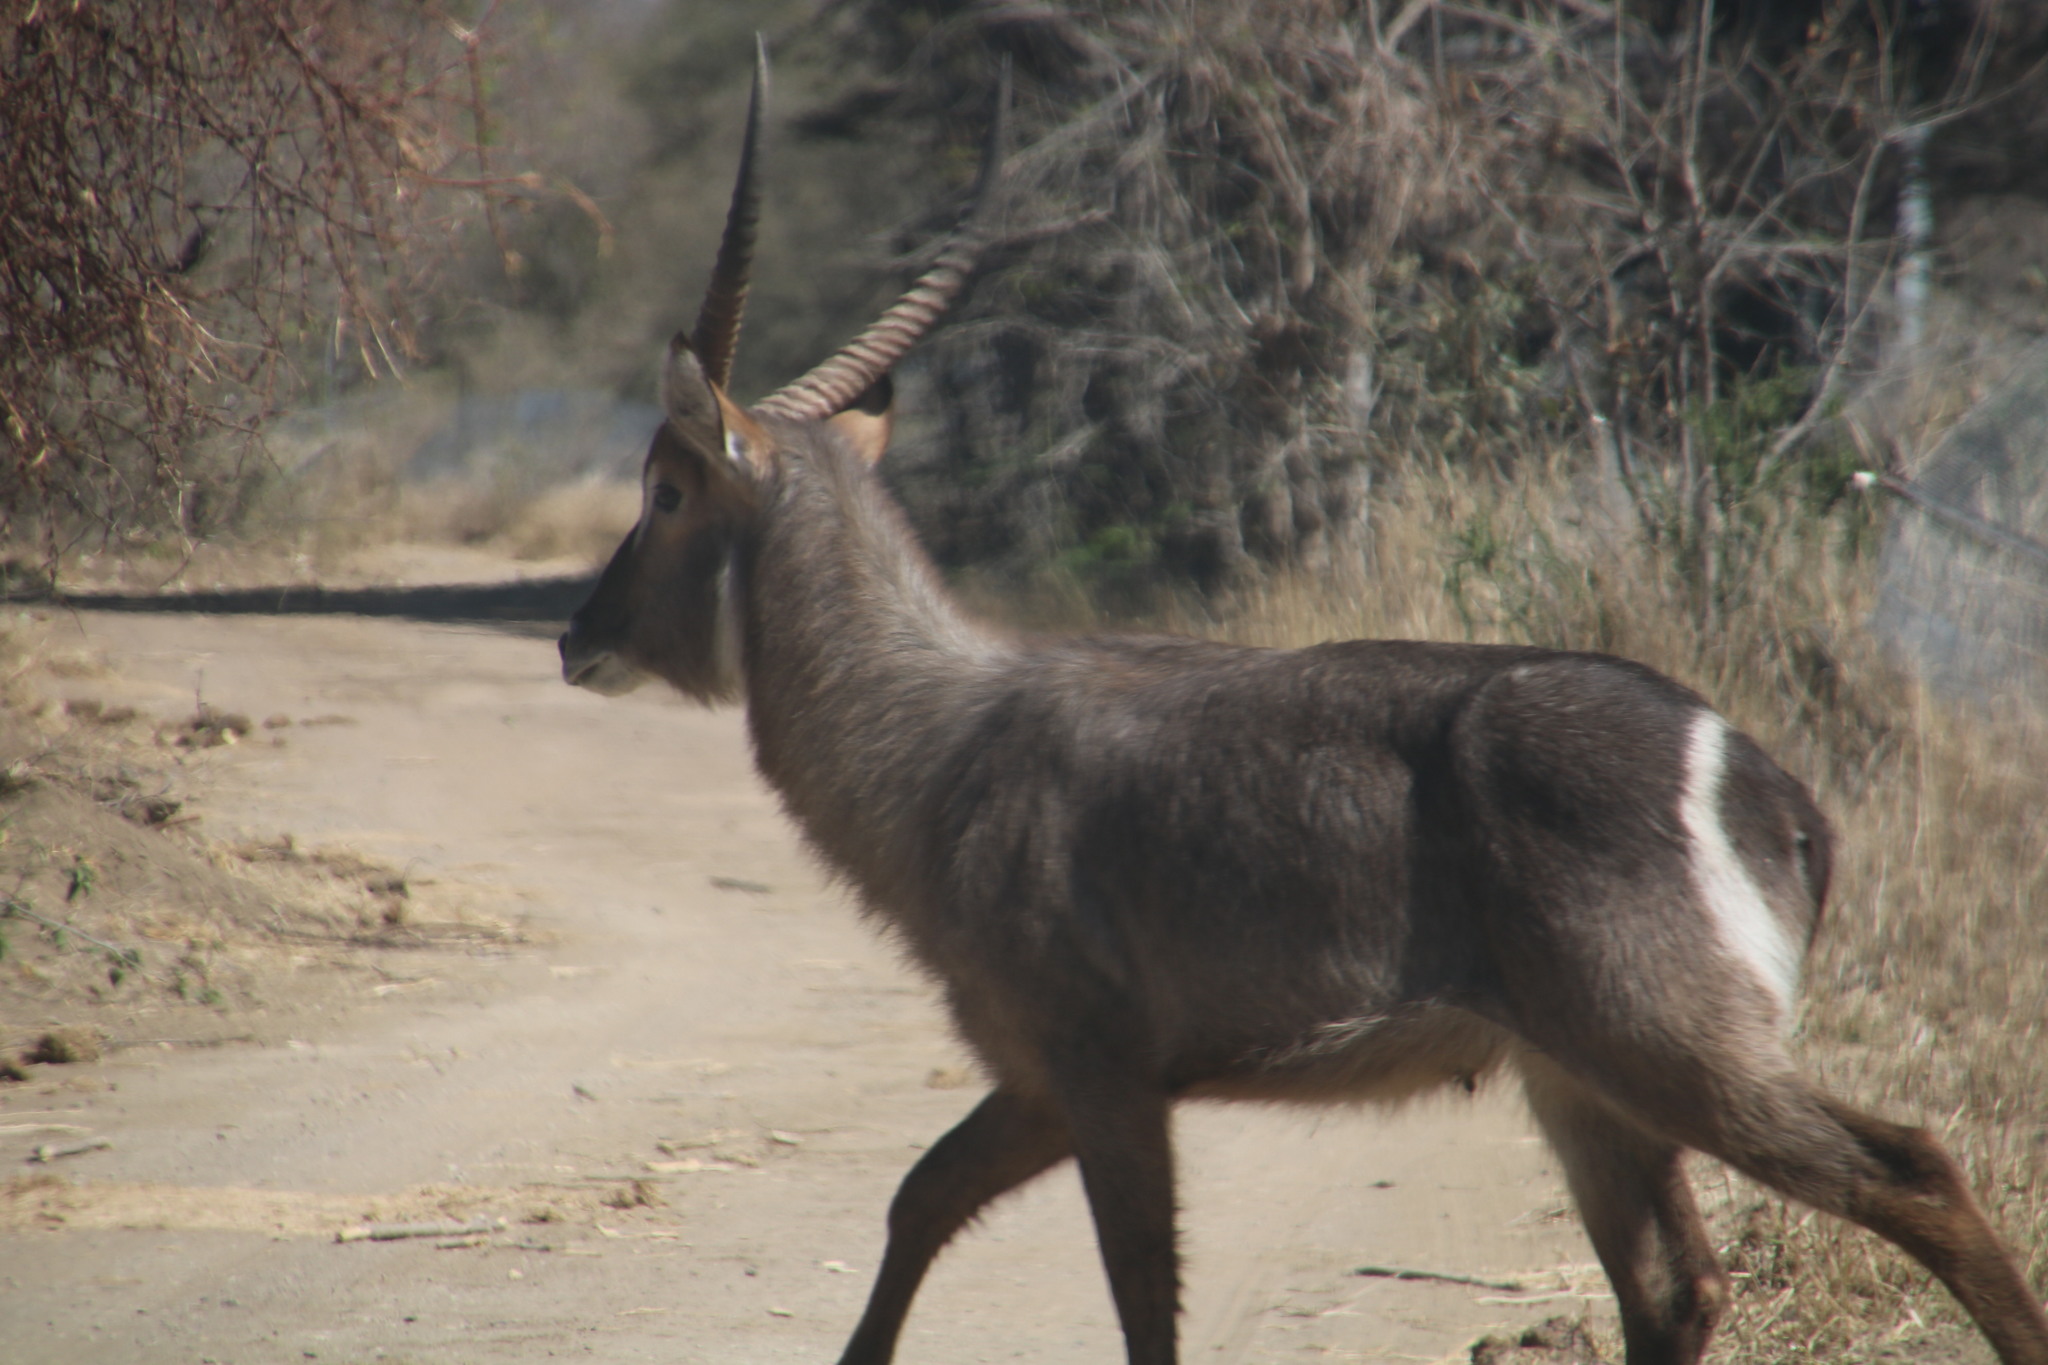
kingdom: Animalia
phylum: Chordata
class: Mammalia
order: Artiodactyla
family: Bovidae
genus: Kobus
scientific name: Kobus ellipsiprymnus
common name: Waterbuck
